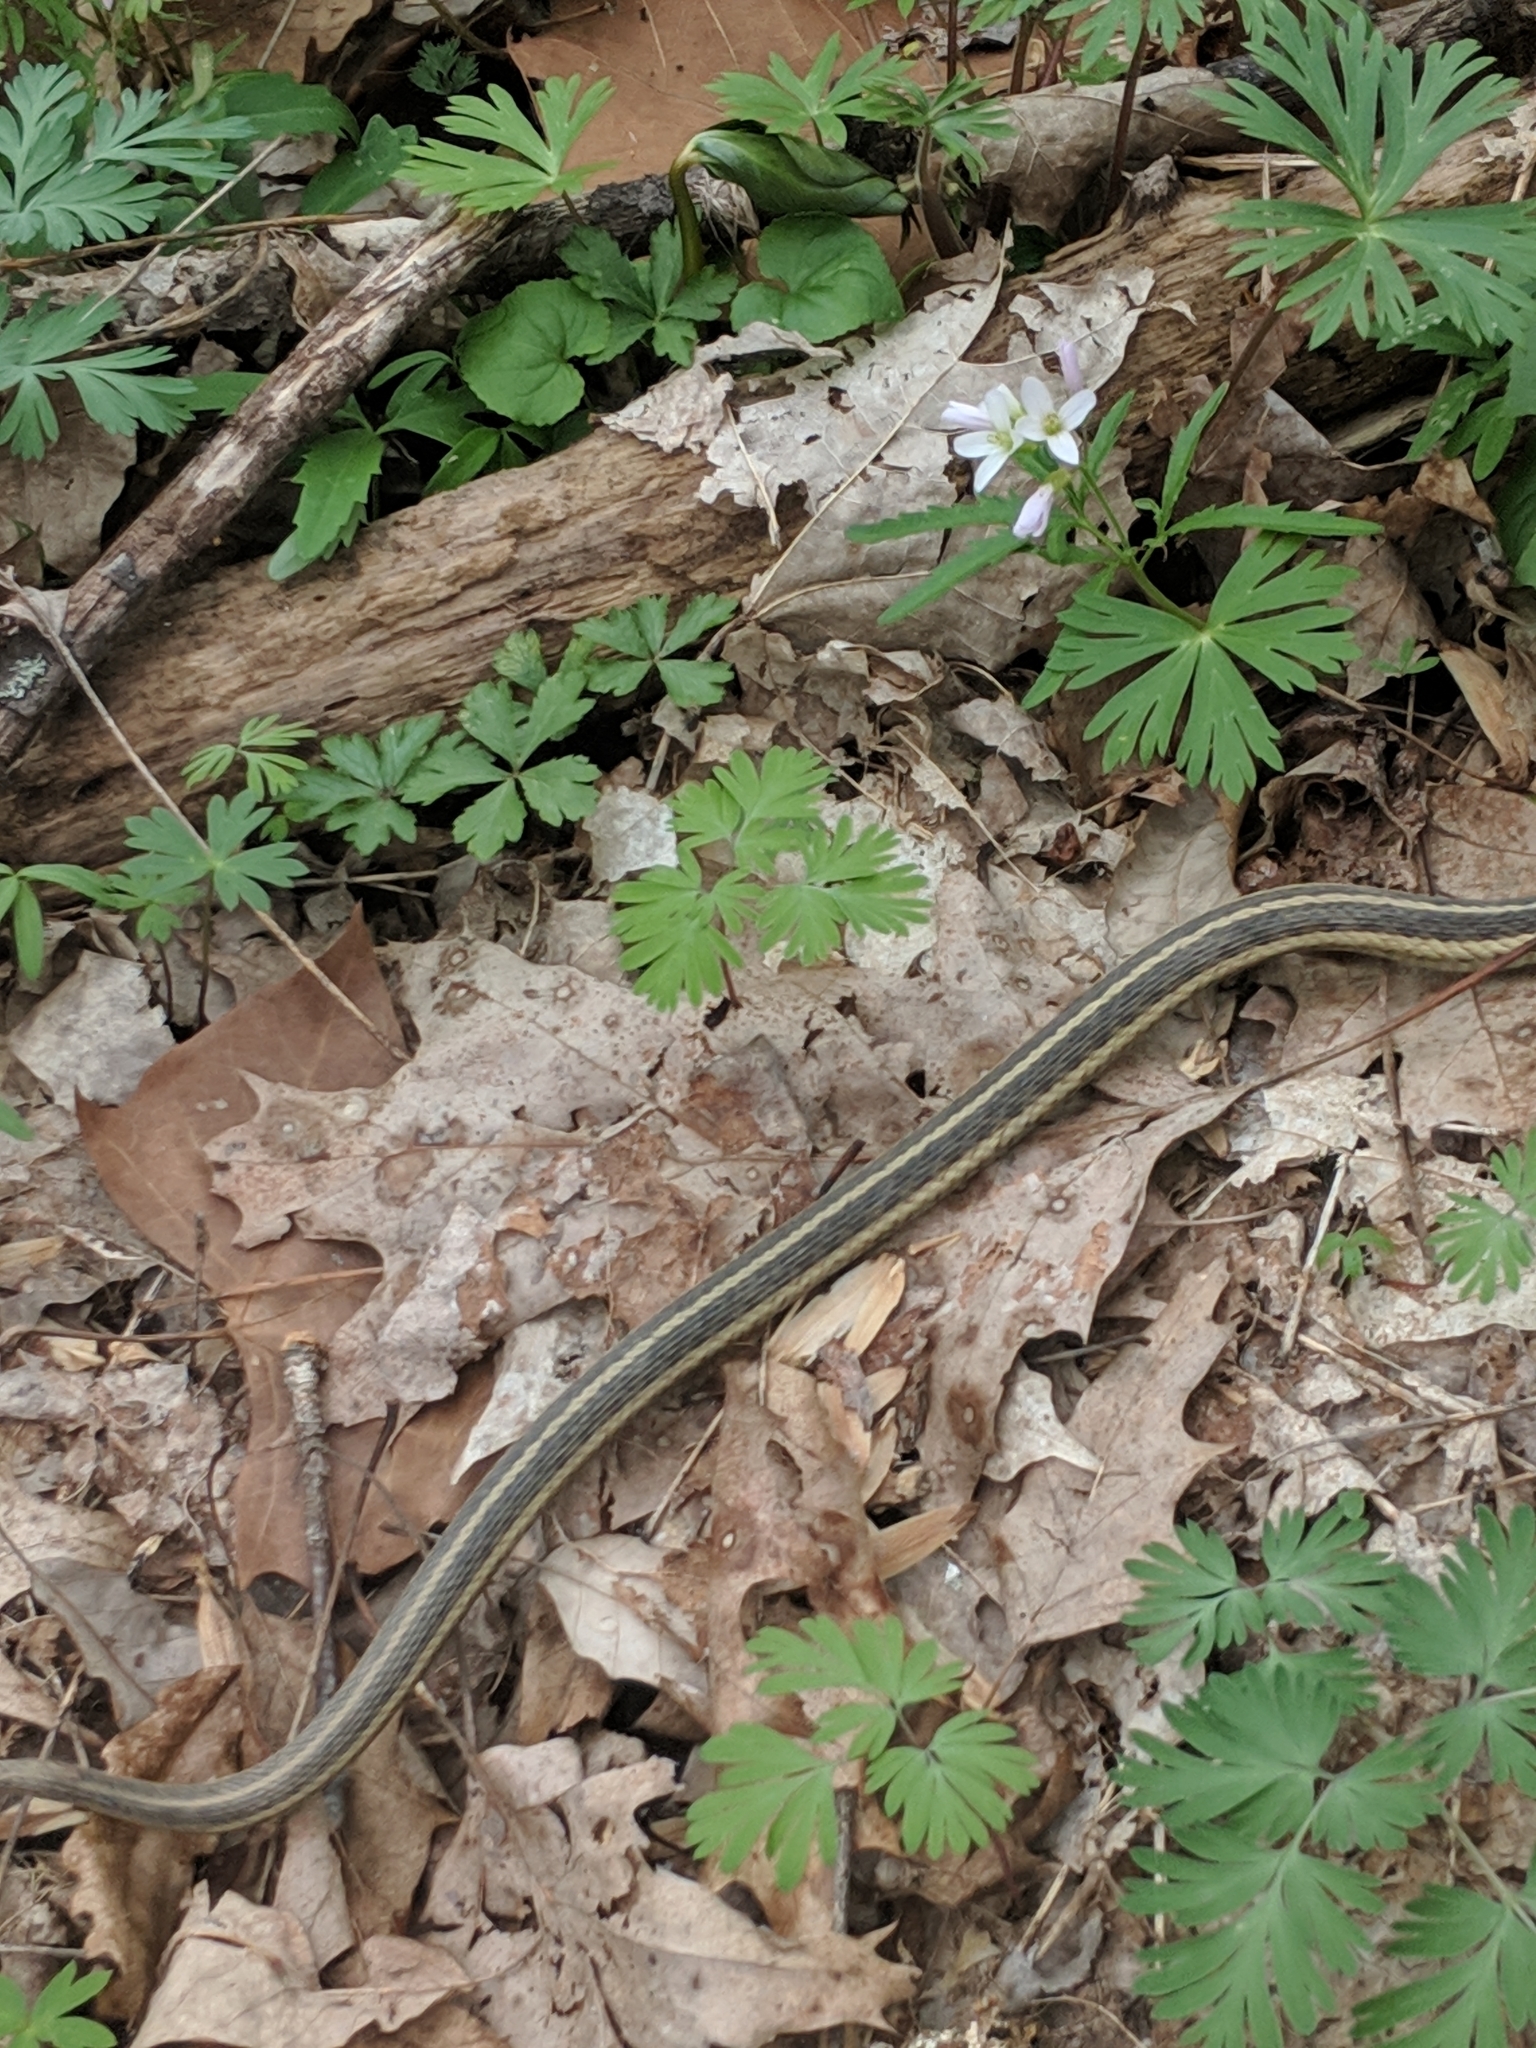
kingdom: Animalia
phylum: Chordata
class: Squamata
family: Colubridae
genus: Thamnophis
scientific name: Thamnophis sirtalis
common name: Common garter snake
